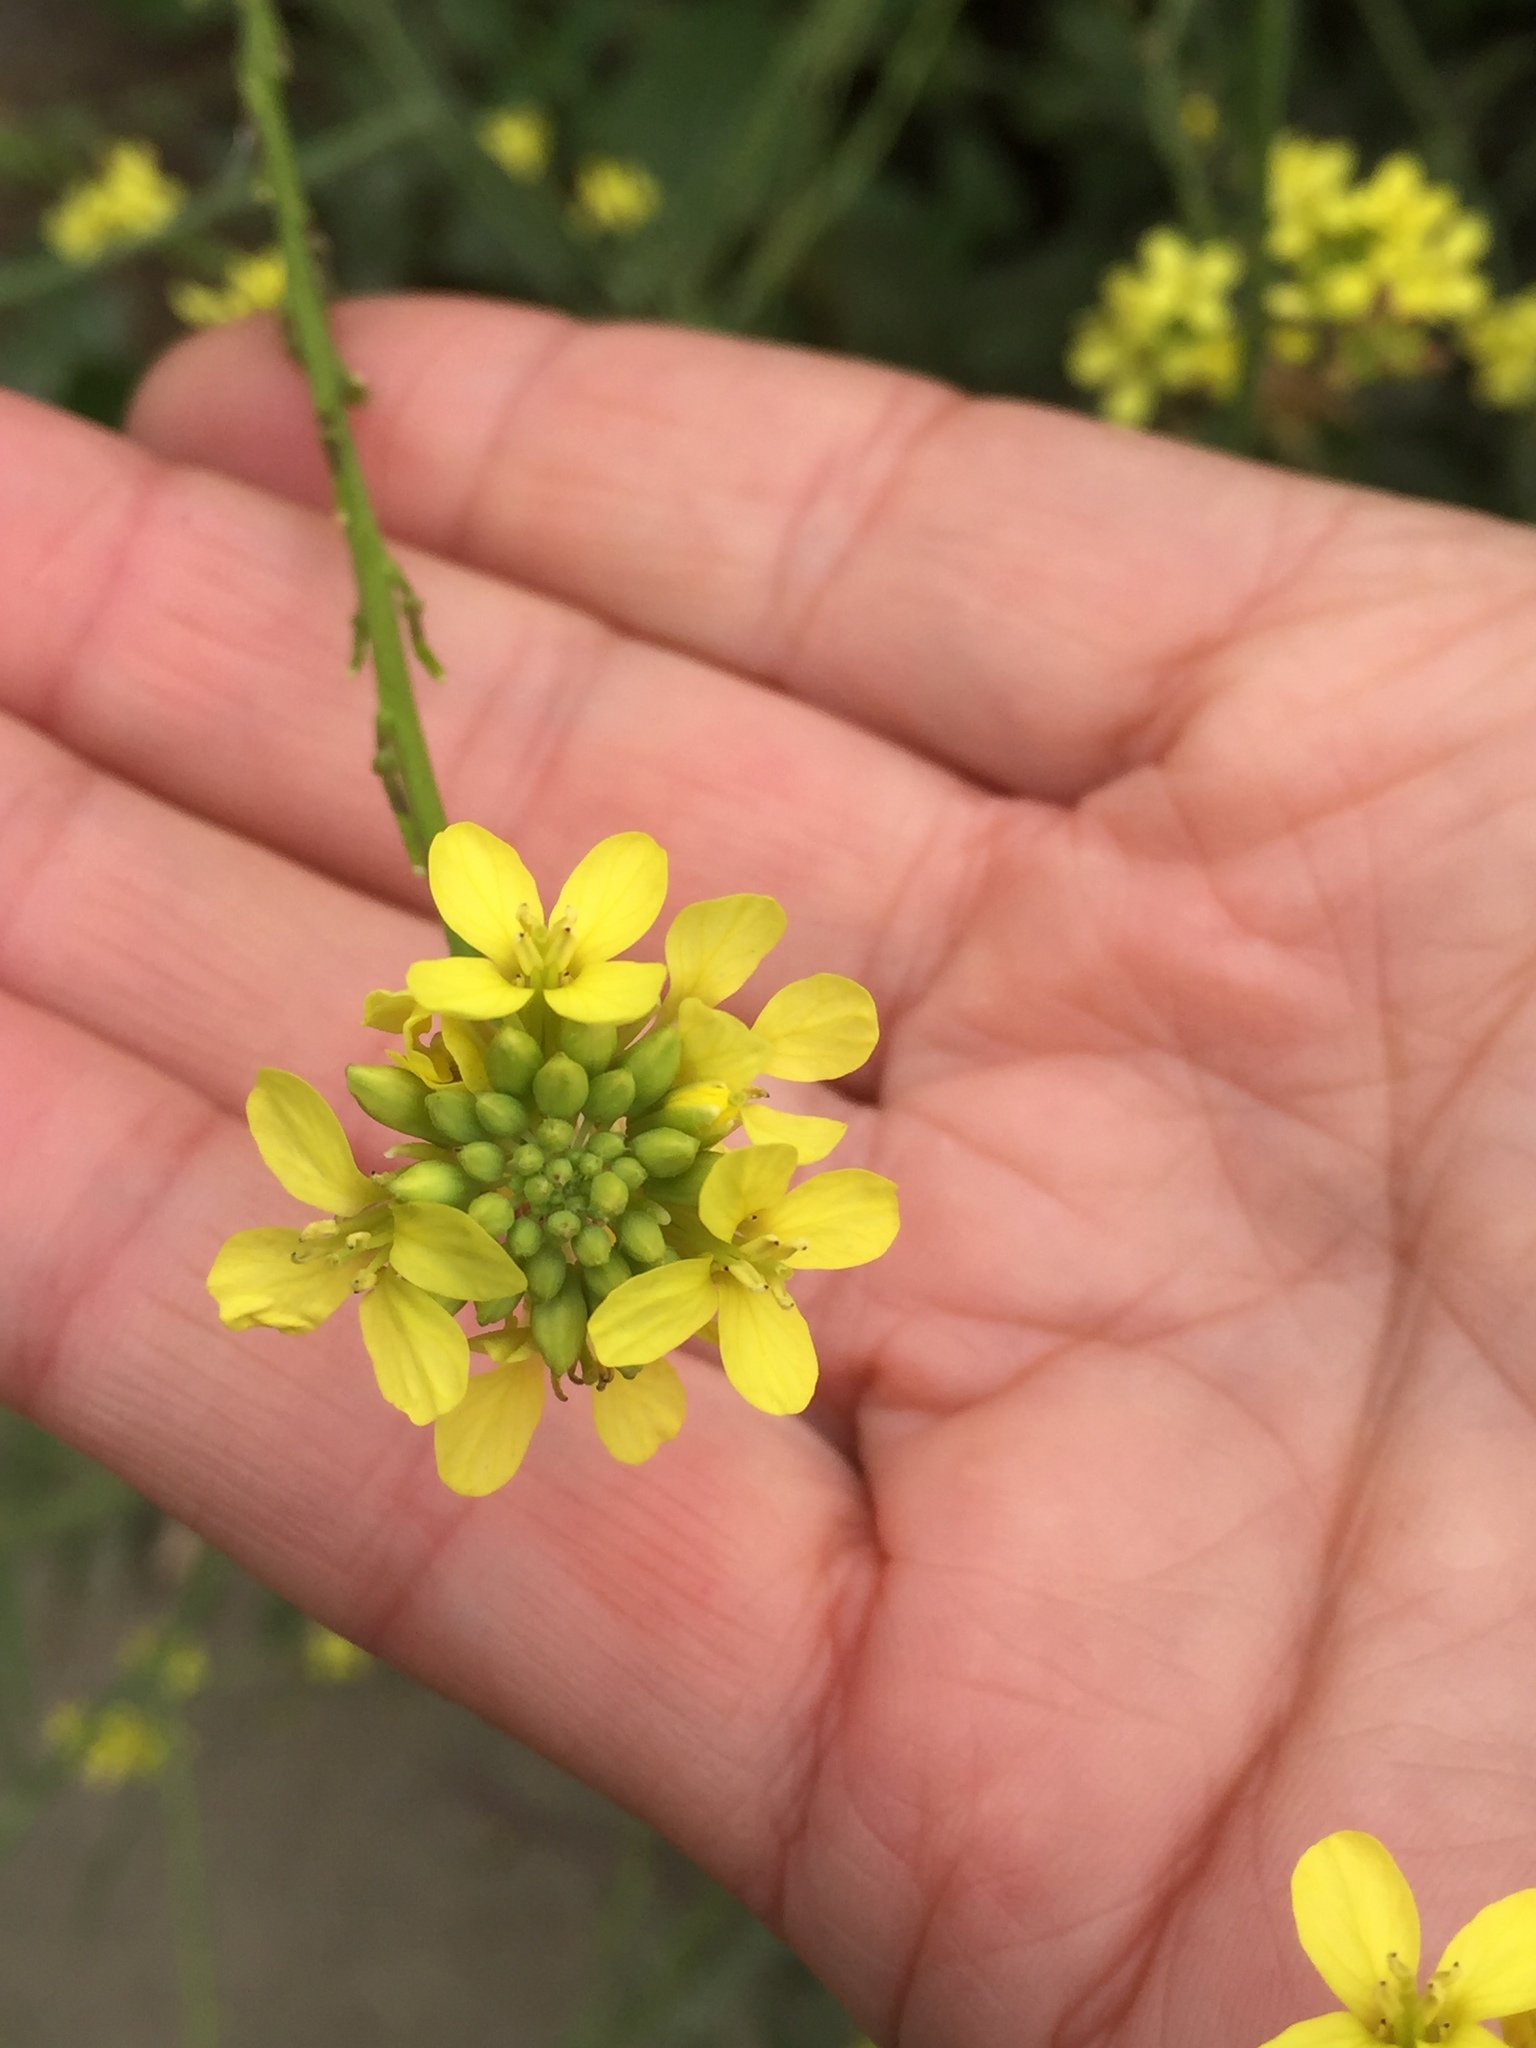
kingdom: Plantae
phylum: Tracheophyta
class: Magnoliopsida
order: Brassicales
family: Brassicaceae
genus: Hirschfeldia
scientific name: Hirschfeldia incana
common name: Hoary mustard
